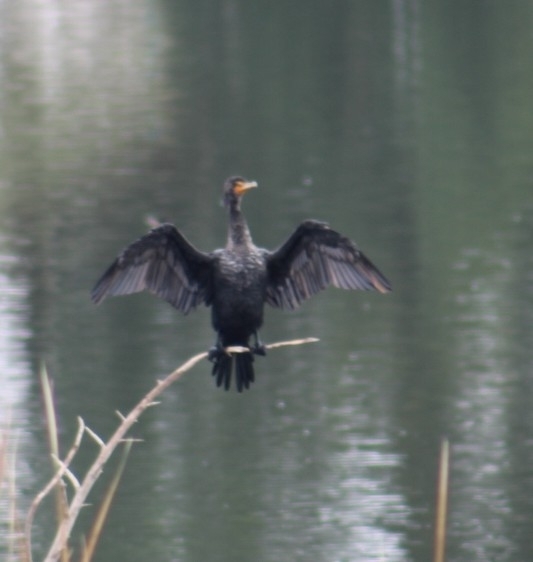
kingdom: Animalia
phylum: Chordata
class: Aves
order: Suliformes
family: Phalacrocoracidae
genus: Phalacrocorax
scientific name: Phalacrocorax auritus
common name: Double-crested cormorant
